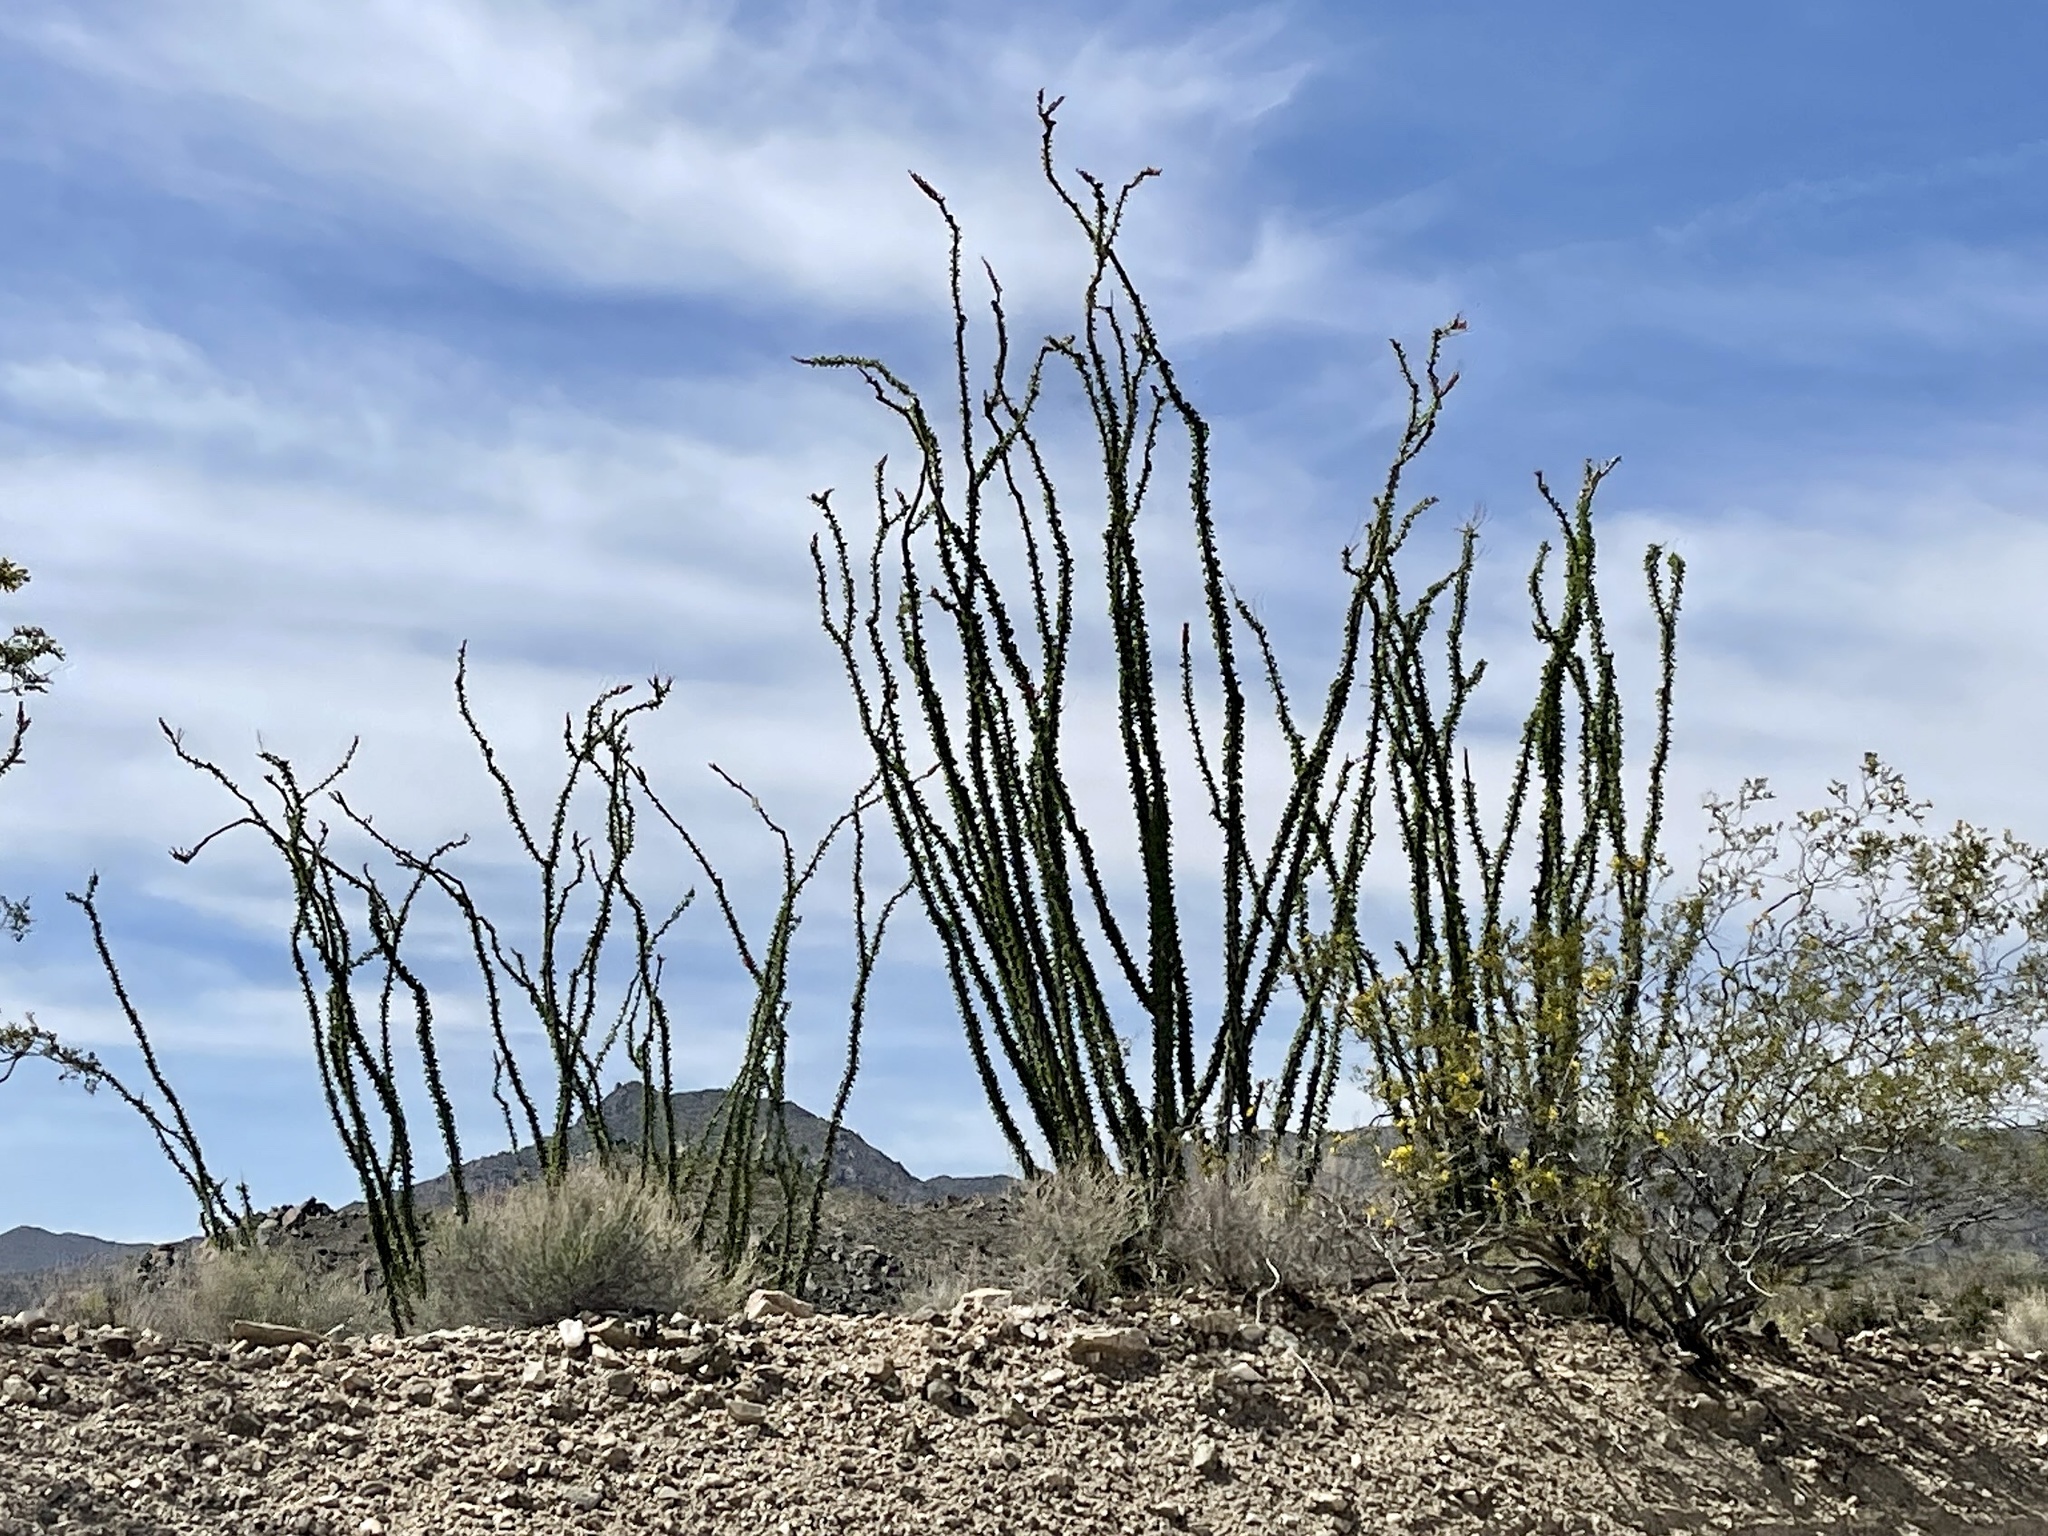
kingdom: Plantae
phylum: Tracheophyta
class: Magnoliopsida
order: Ericales
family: Fouquieriaceae
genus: Fouquieria
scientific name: Fouquieria splendens
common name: Vine-cactus
